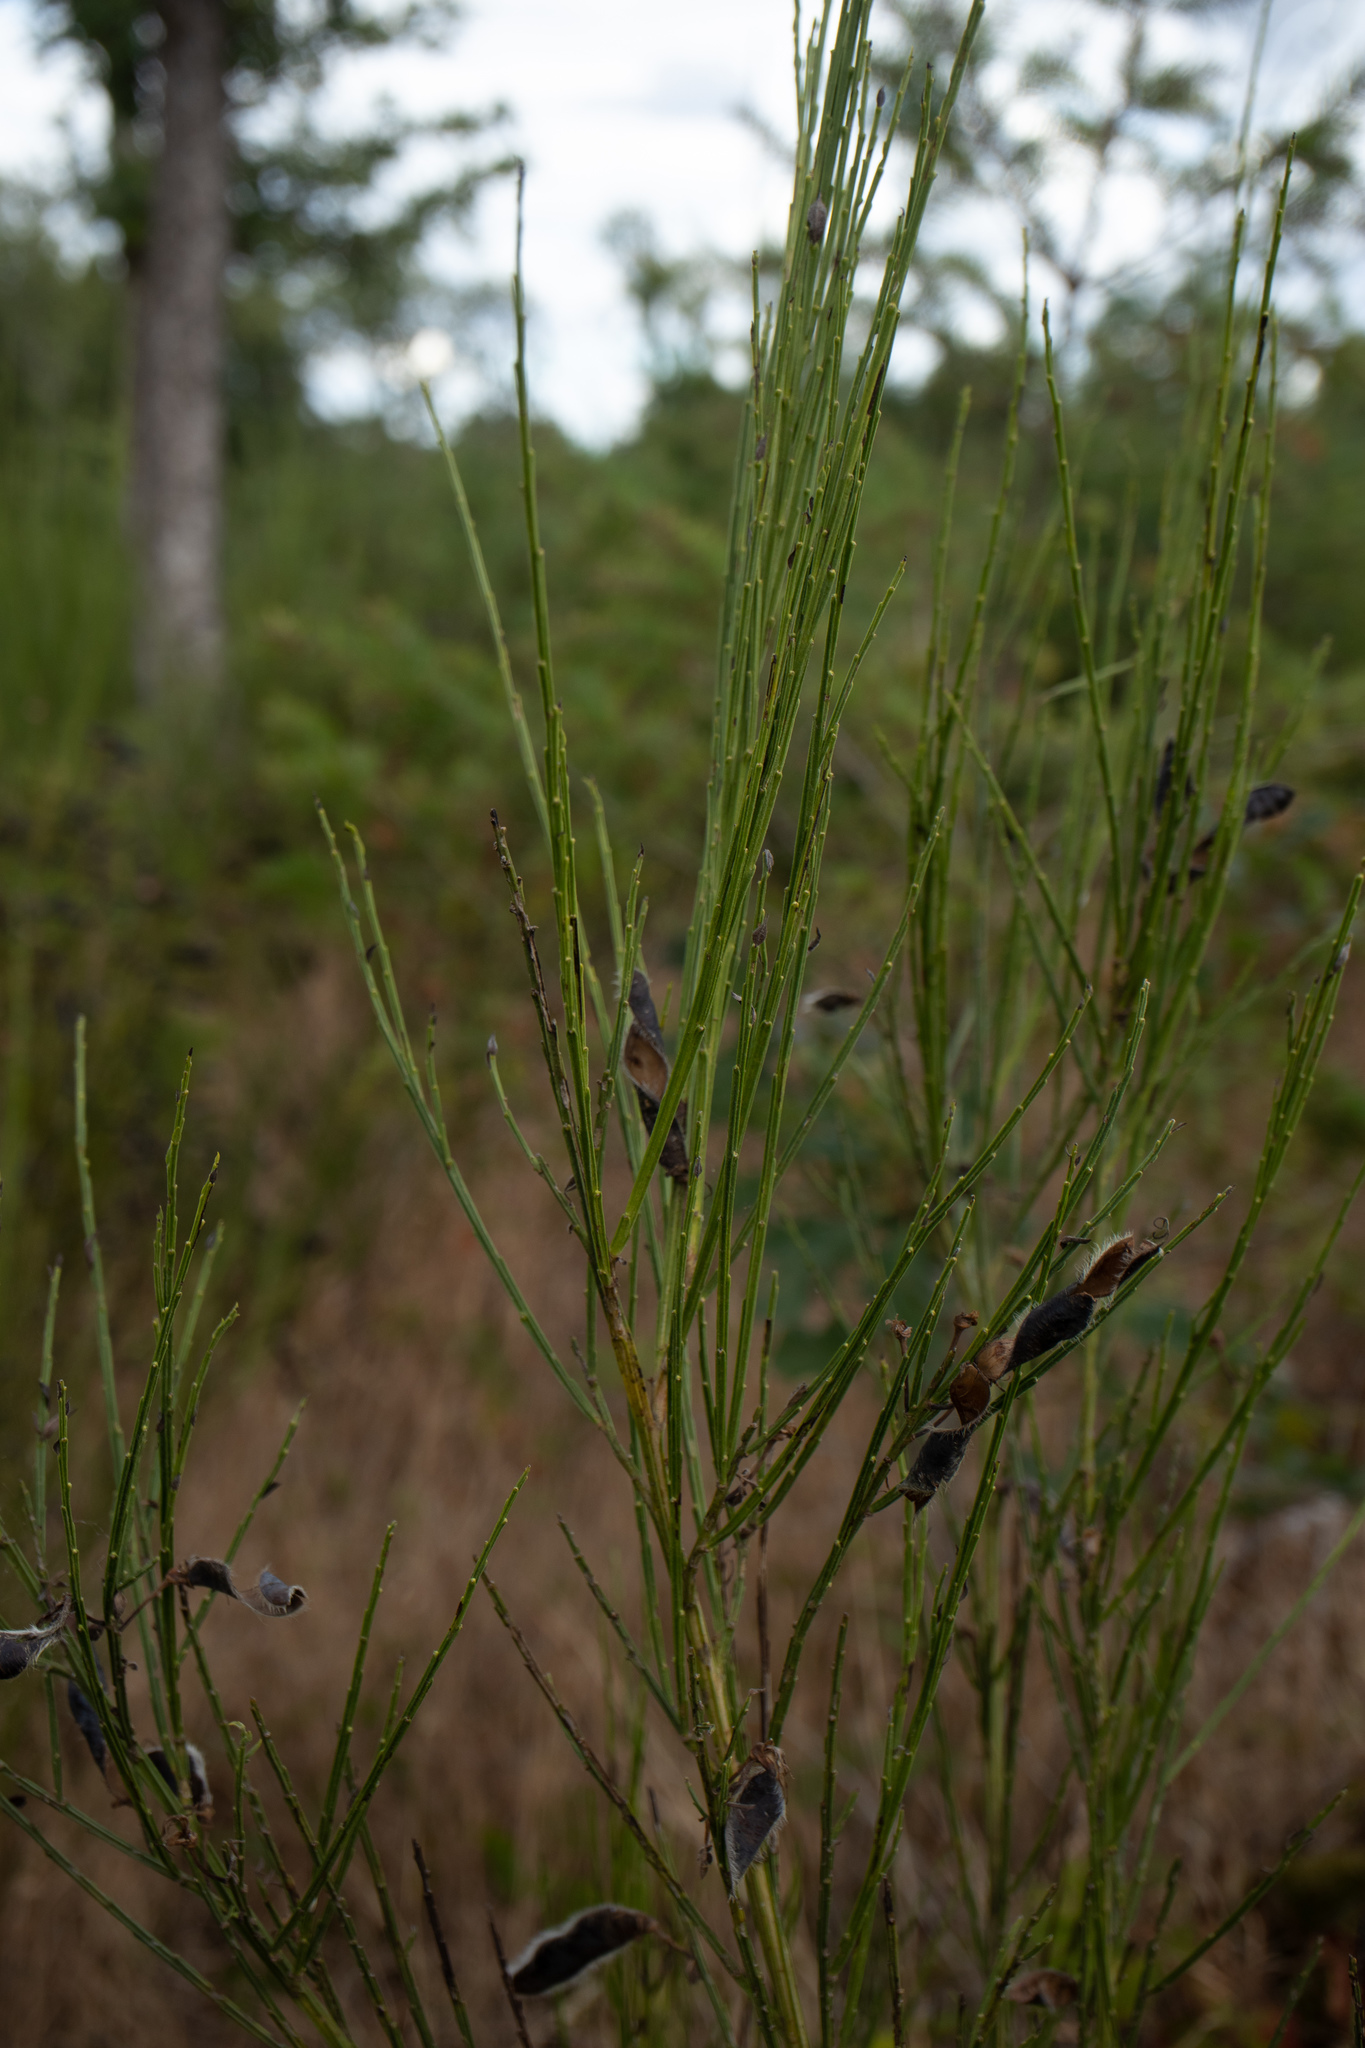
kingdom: Plantae
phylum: Tracheophyta
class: Magnoliopsida
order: Fabales
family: Fabaceae
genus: Cytisus
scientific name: Cytisus scoparius
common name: Scotch broom
